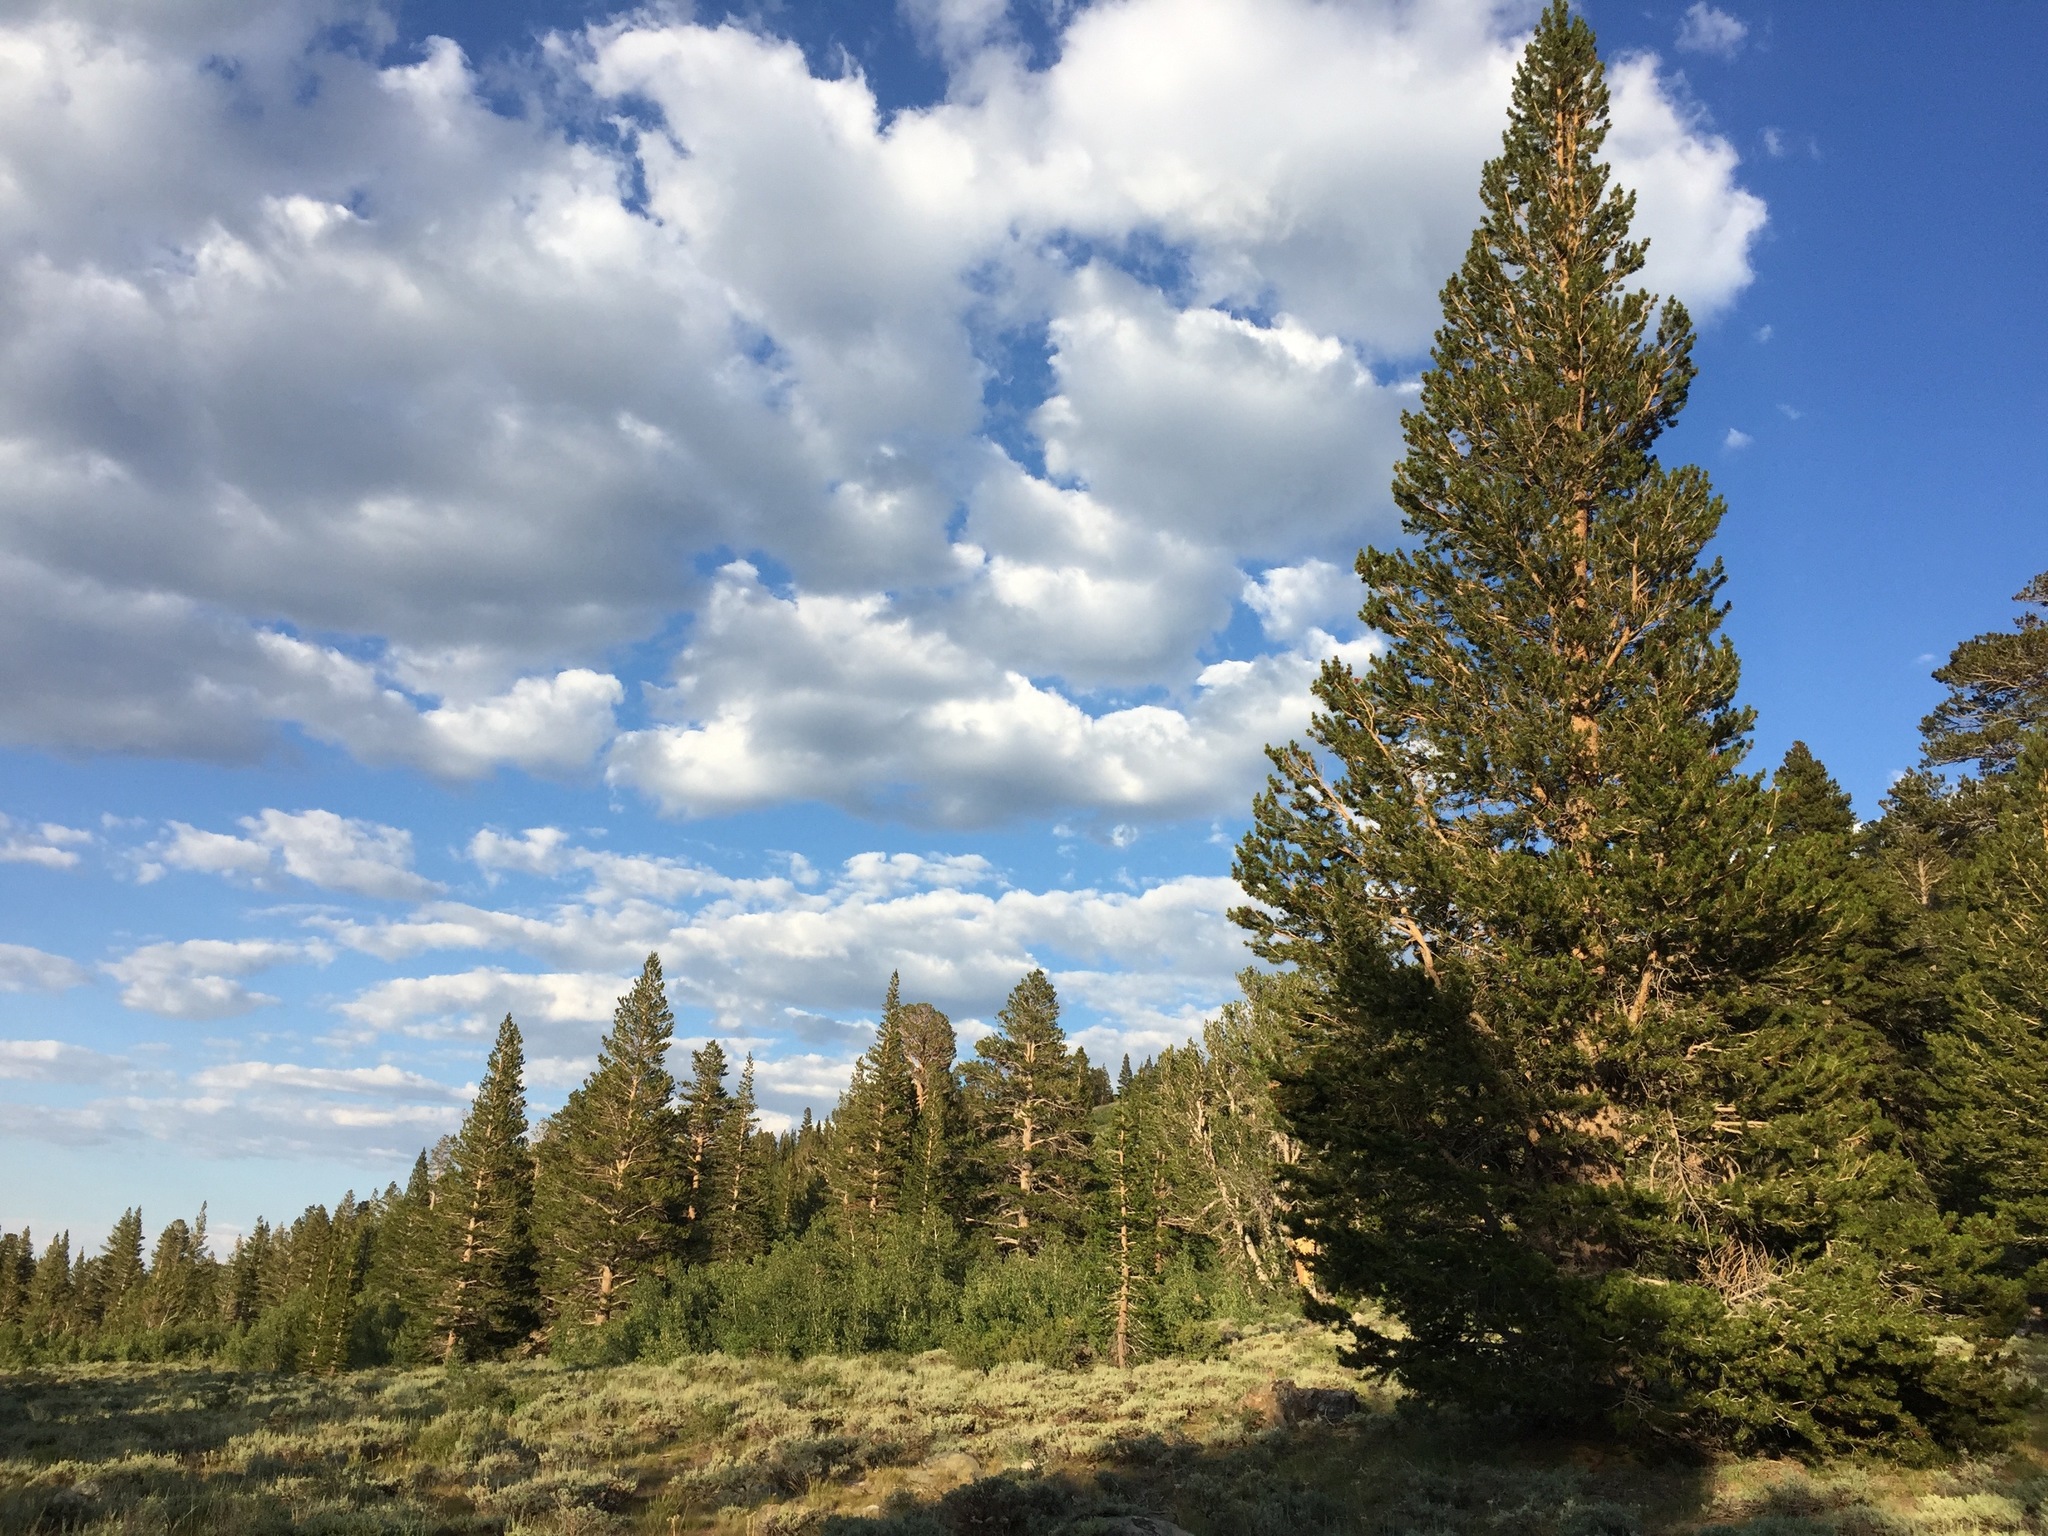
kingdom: Plantae
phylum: Tracheophyta
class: Pinopsida
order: Pinales
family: Pinaceae
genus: Pinus
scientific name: Pinus contorta
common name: Lodgepole pine
